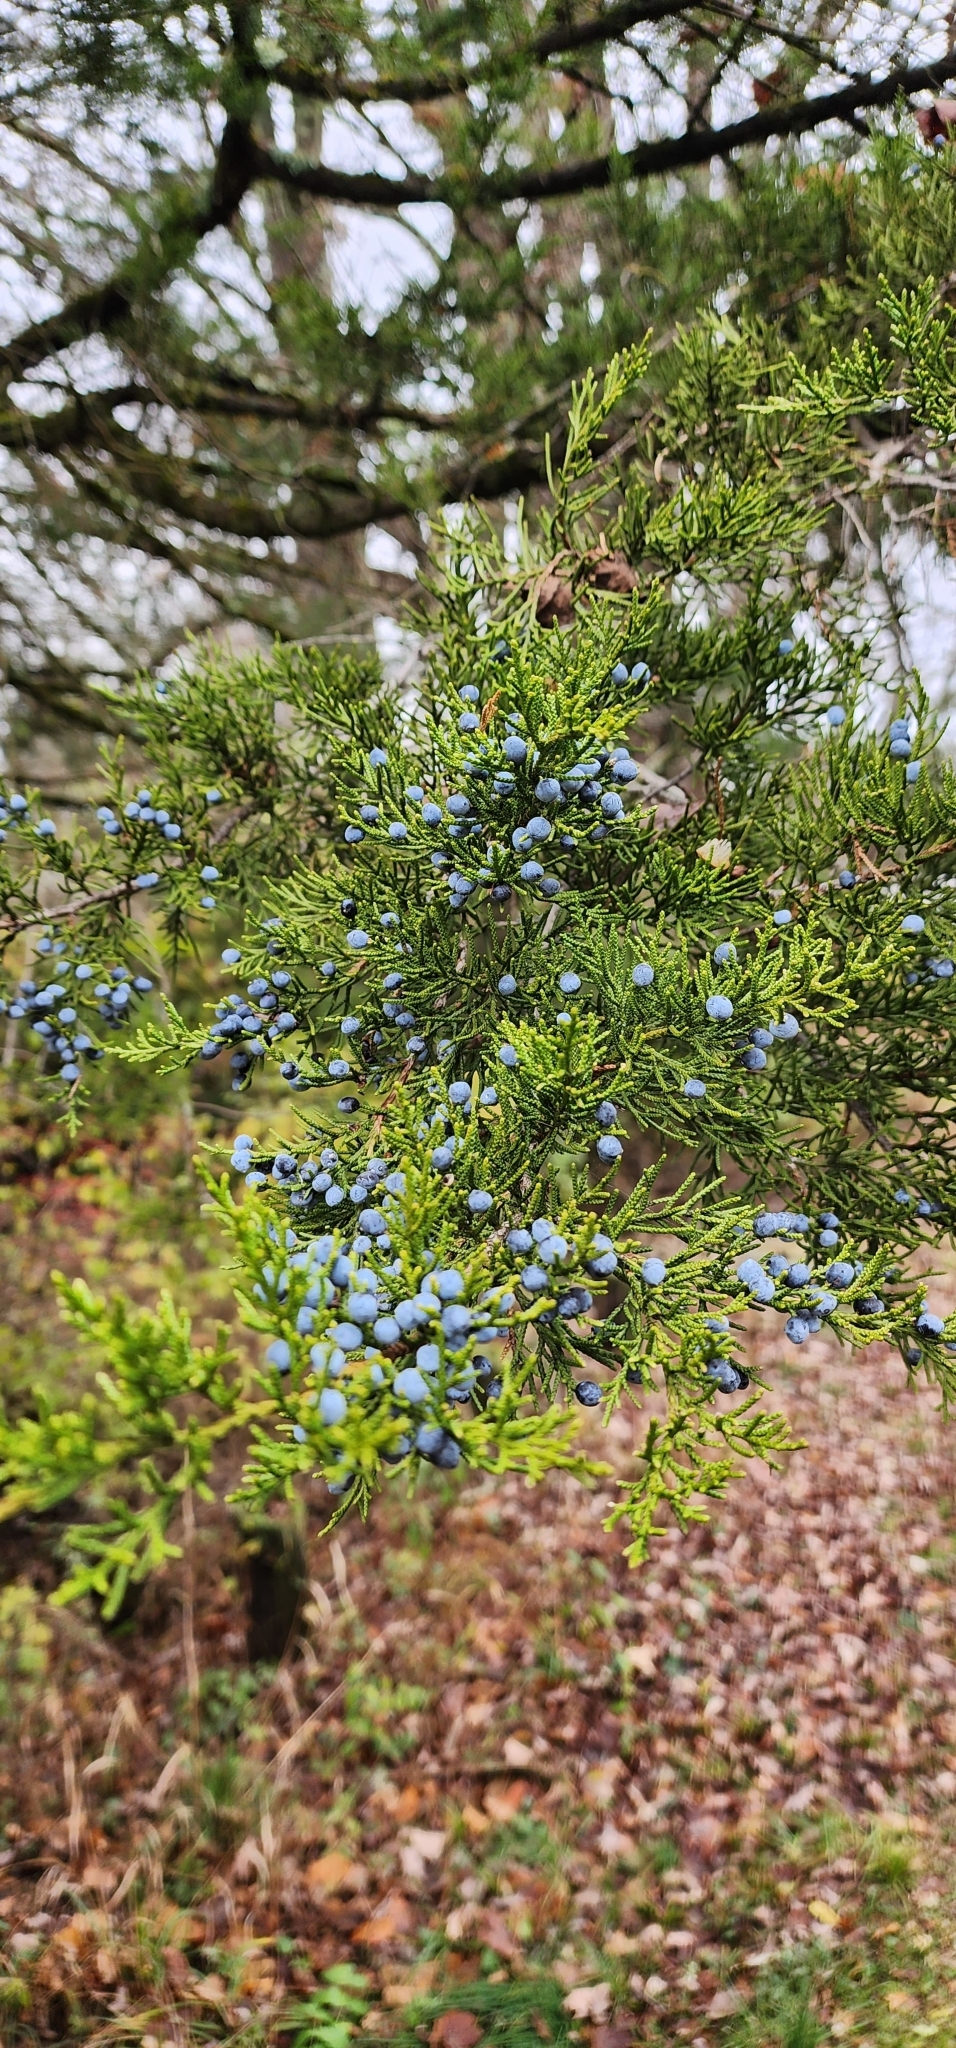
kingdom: Plantae
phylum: Tracheophyta
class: Pinopsida
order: Pinales
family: Cupressaceae
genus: Juniperus
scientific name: Juniperus virginiana
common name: Red juniper
